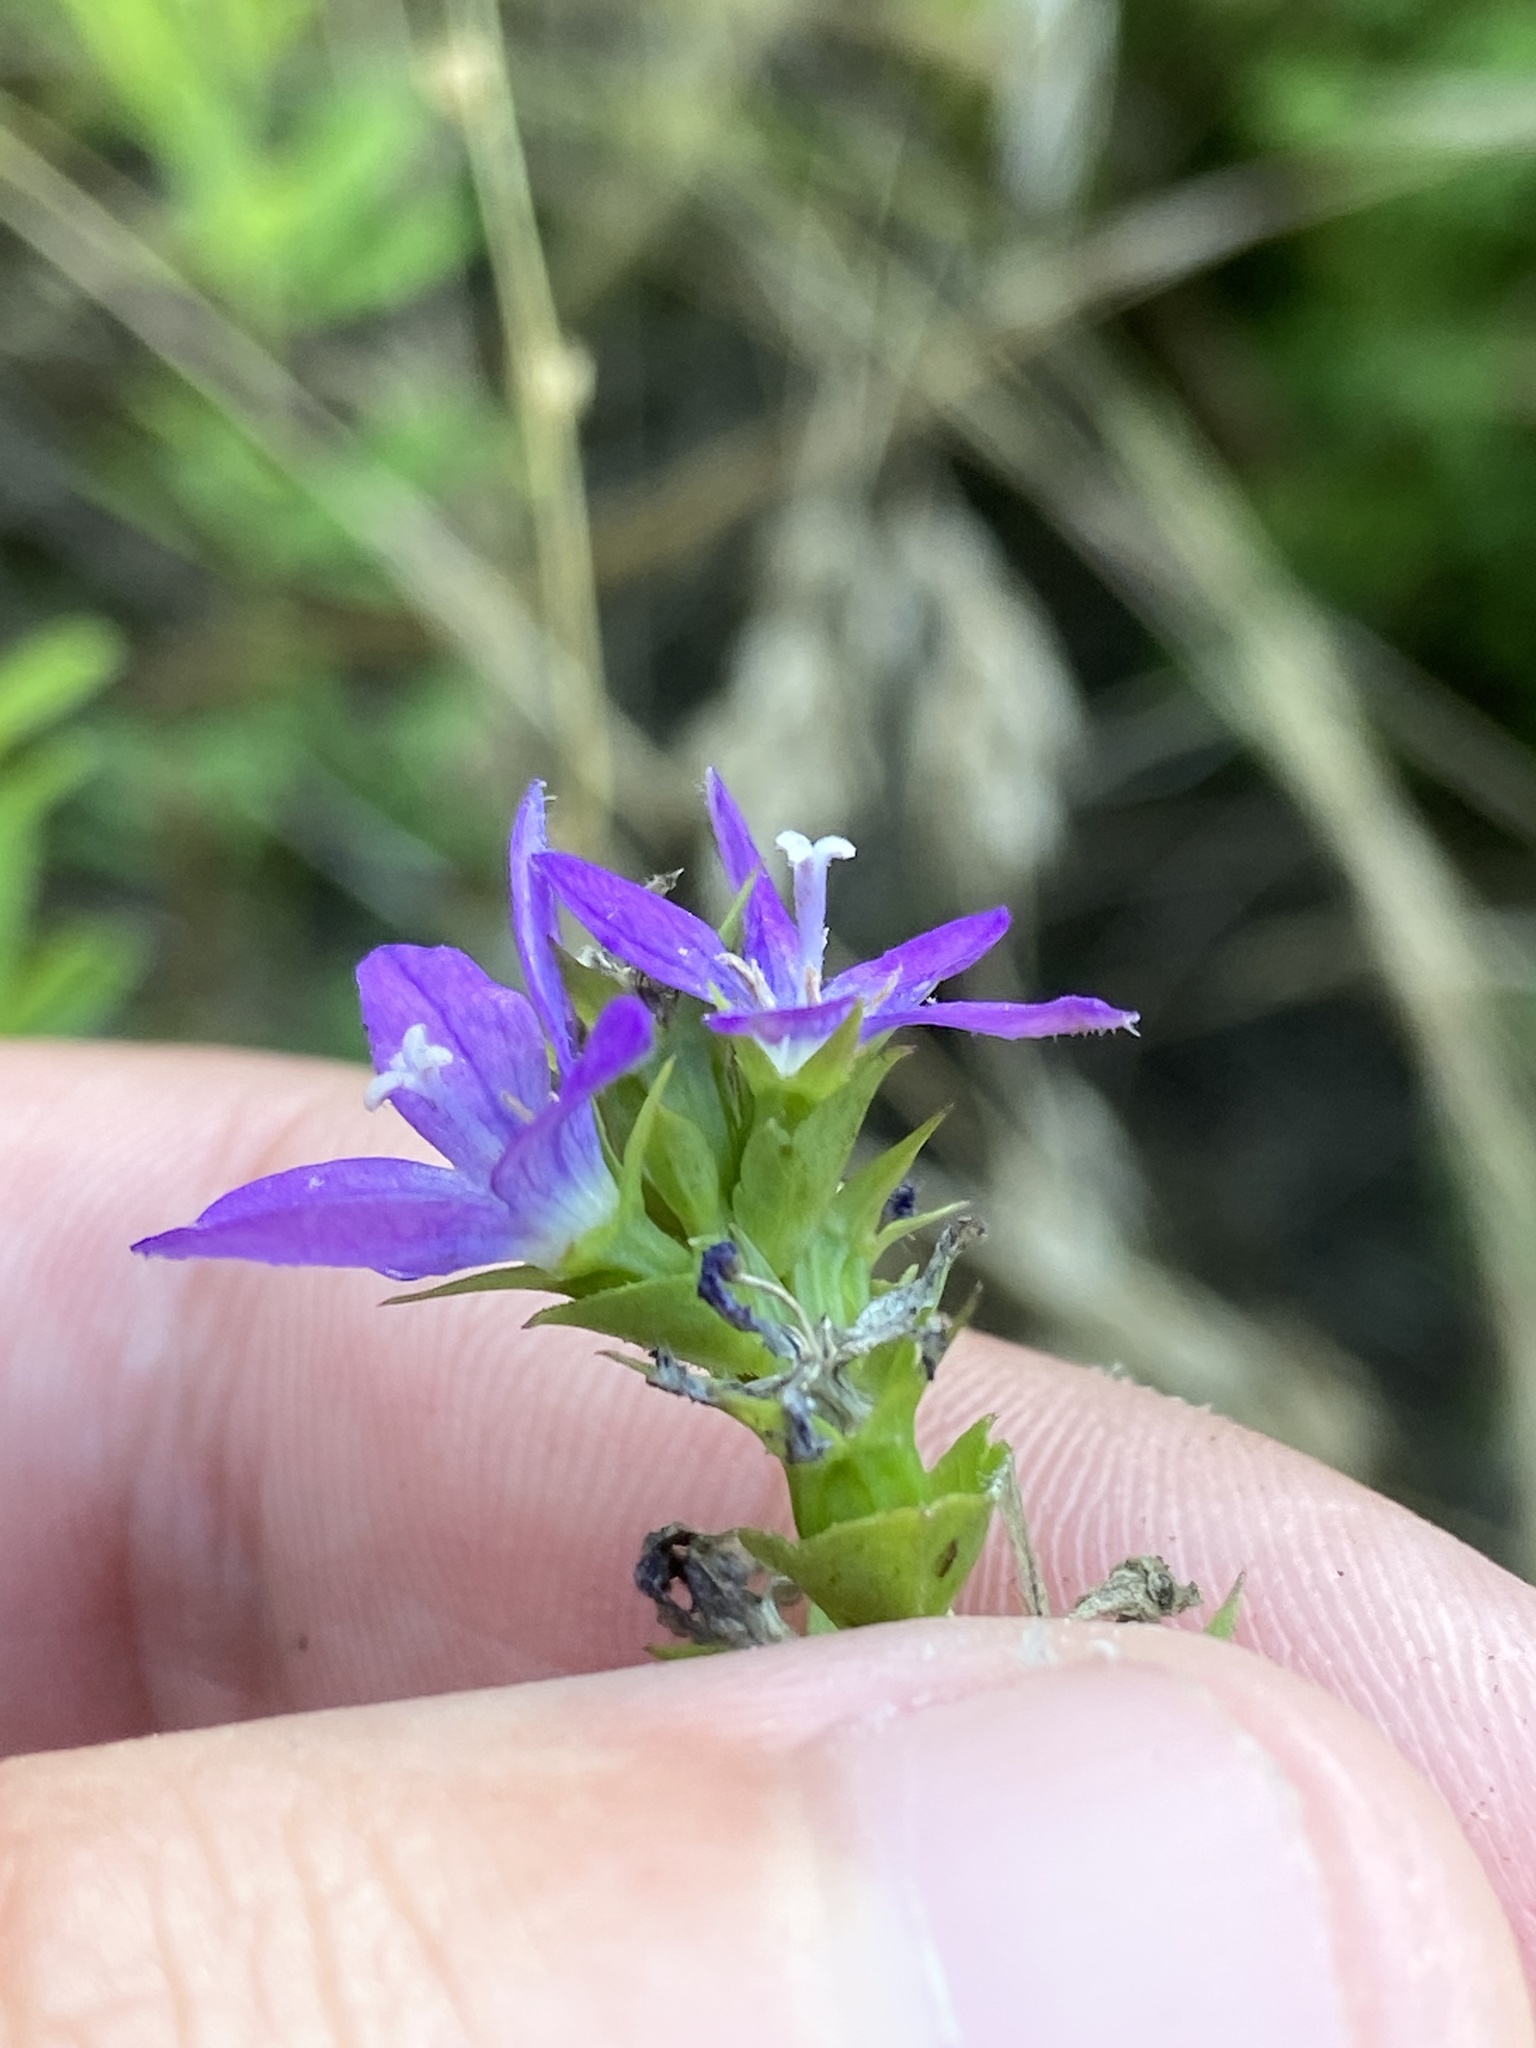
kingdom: Plantae
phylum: Tracheophyta
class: Magnoliopsida
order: Asterales
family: Campanulaceae
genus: Triodanis
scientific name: Triodanis perfoliata
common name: Clasping venus' looking-glass
